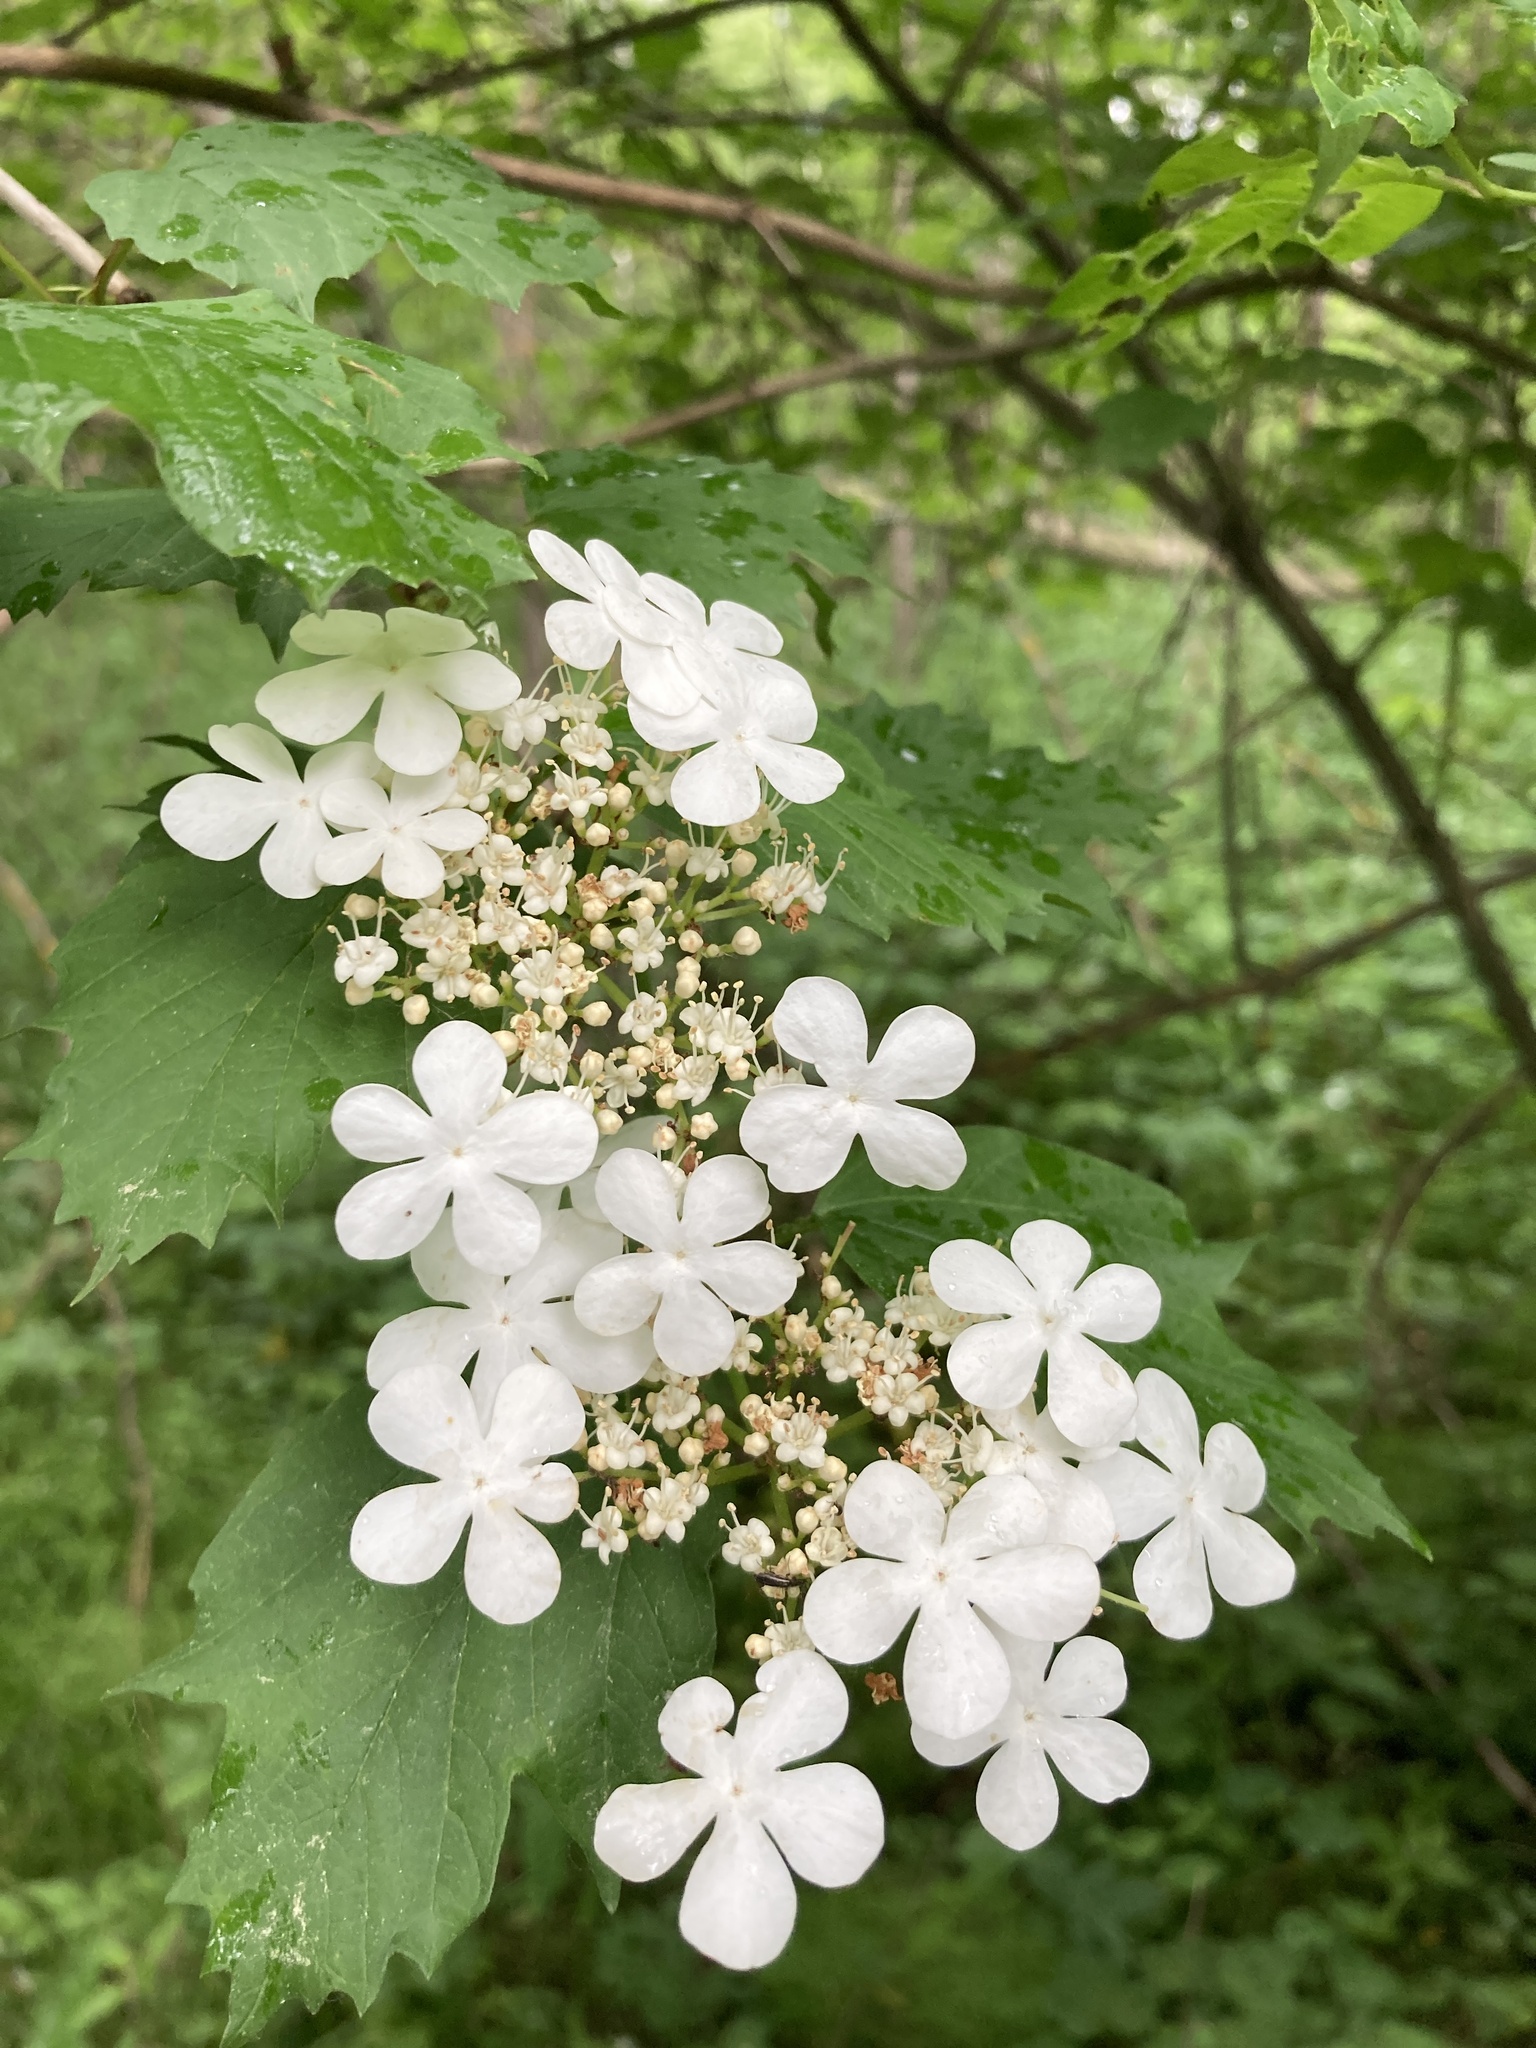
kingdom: Plantae
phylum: Tracheophyta
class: Magnoliopsida
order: Dipsacales
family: Viburnaceae
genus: Viburnum
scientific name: Viburnum opulus
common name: Guelder-rose
